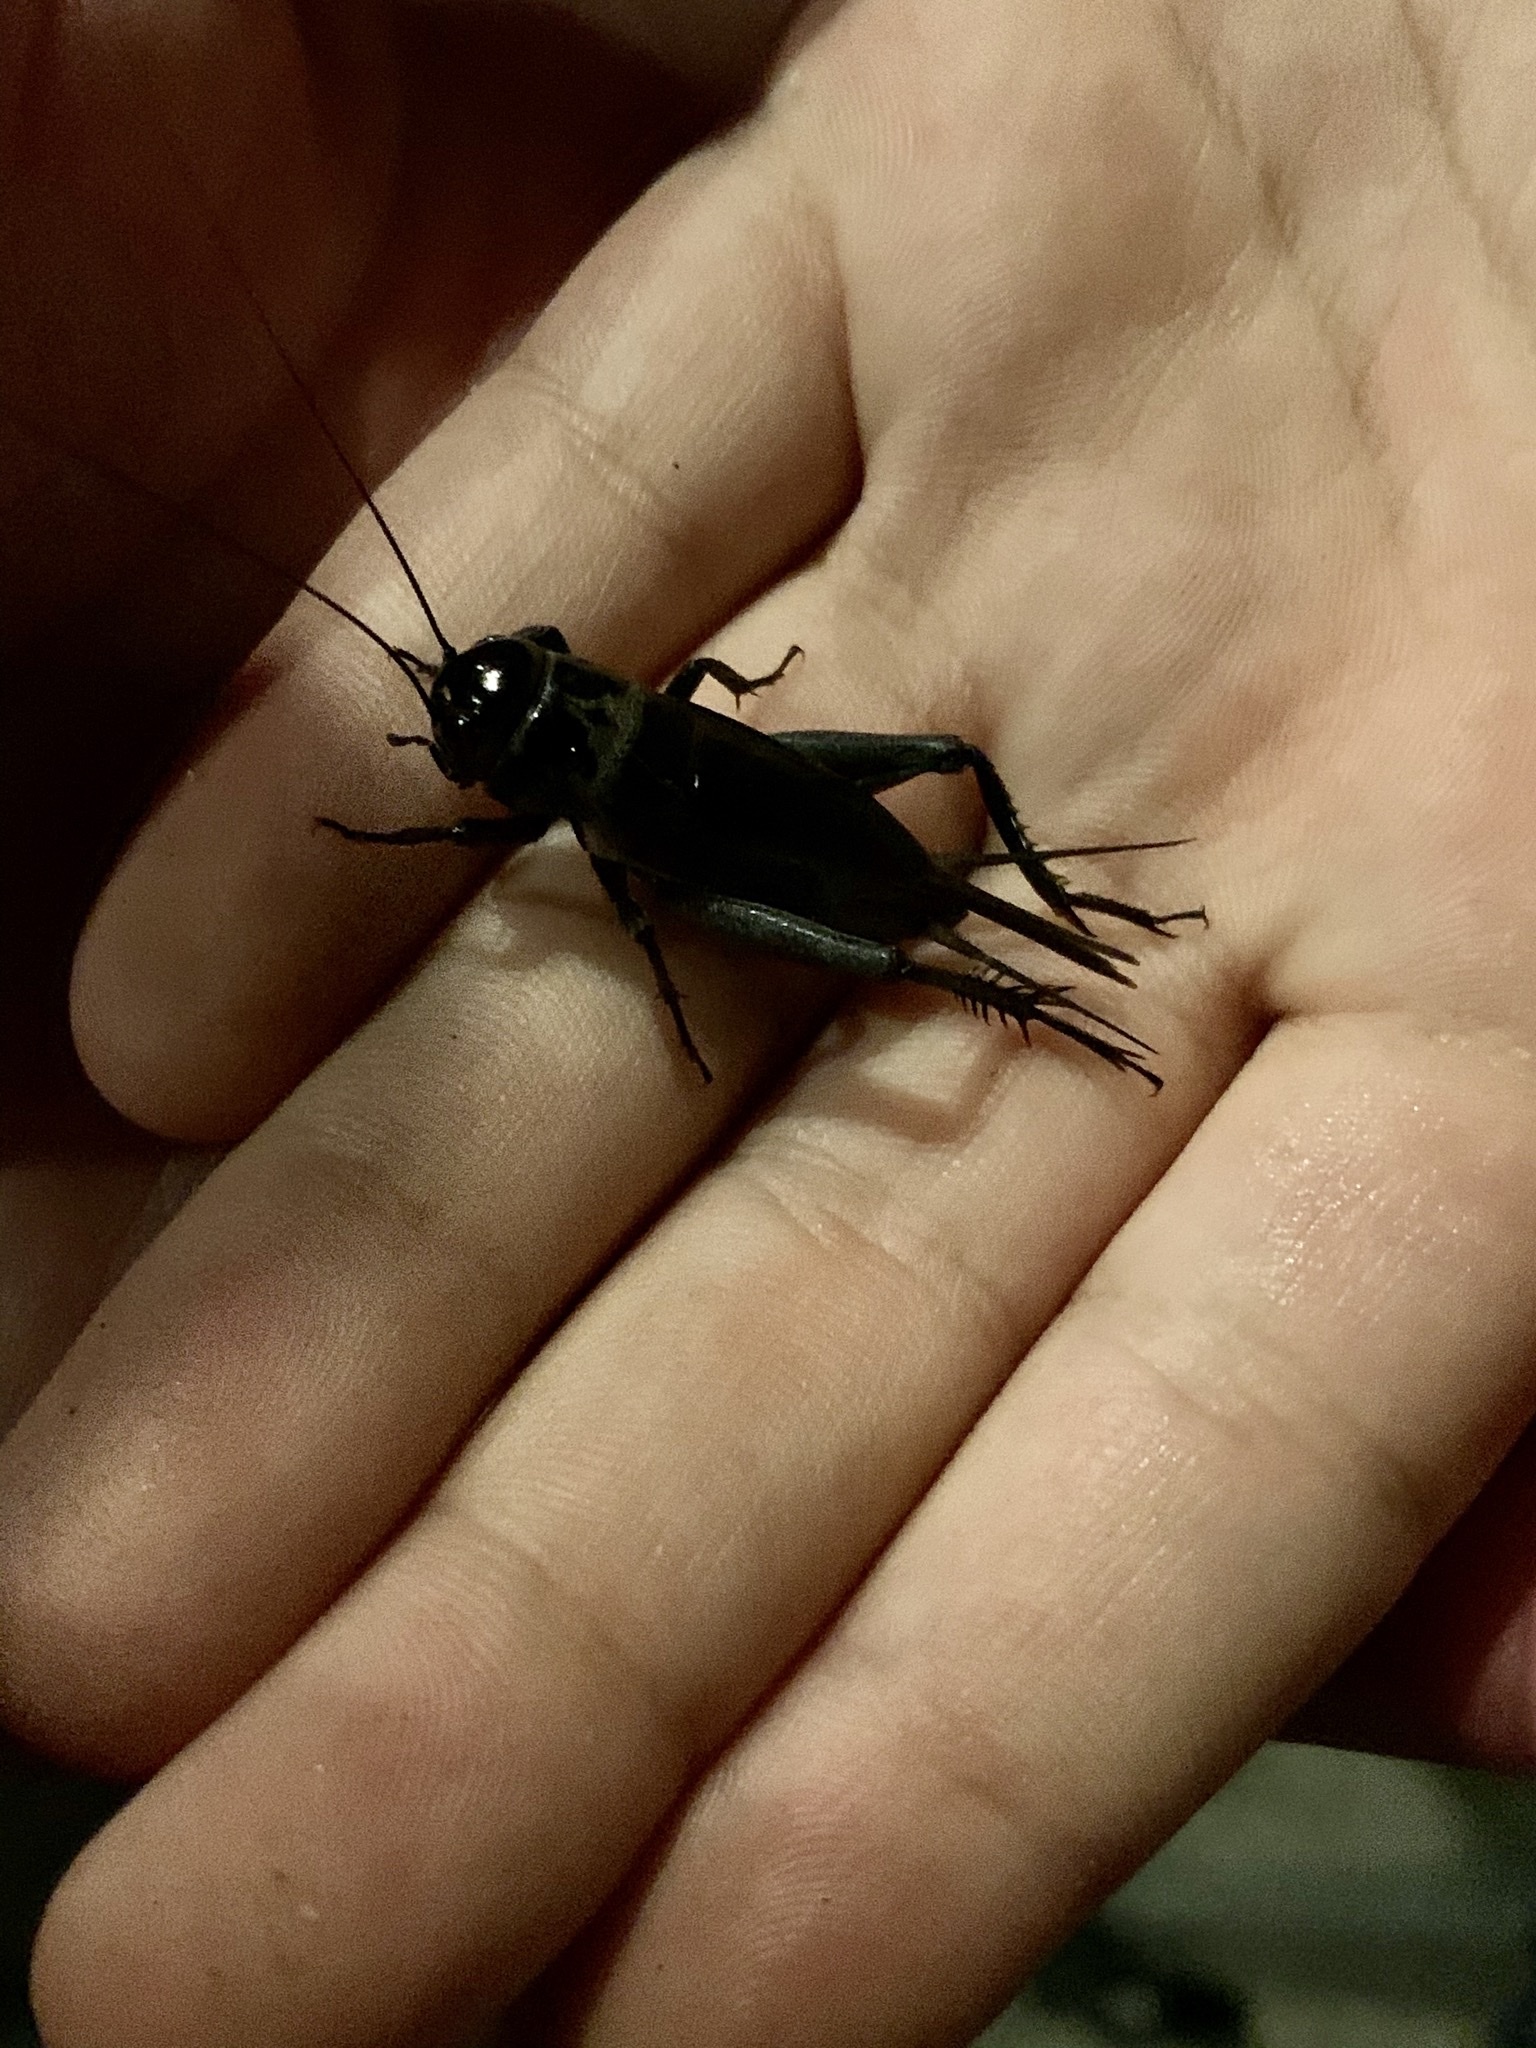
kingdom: Animalia
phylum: Arthropoda
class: Insecta
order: Orthoptera
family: Gryllidae
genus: Teleogryllus
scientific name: Teleogryllus commodus
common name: Black field cricket
